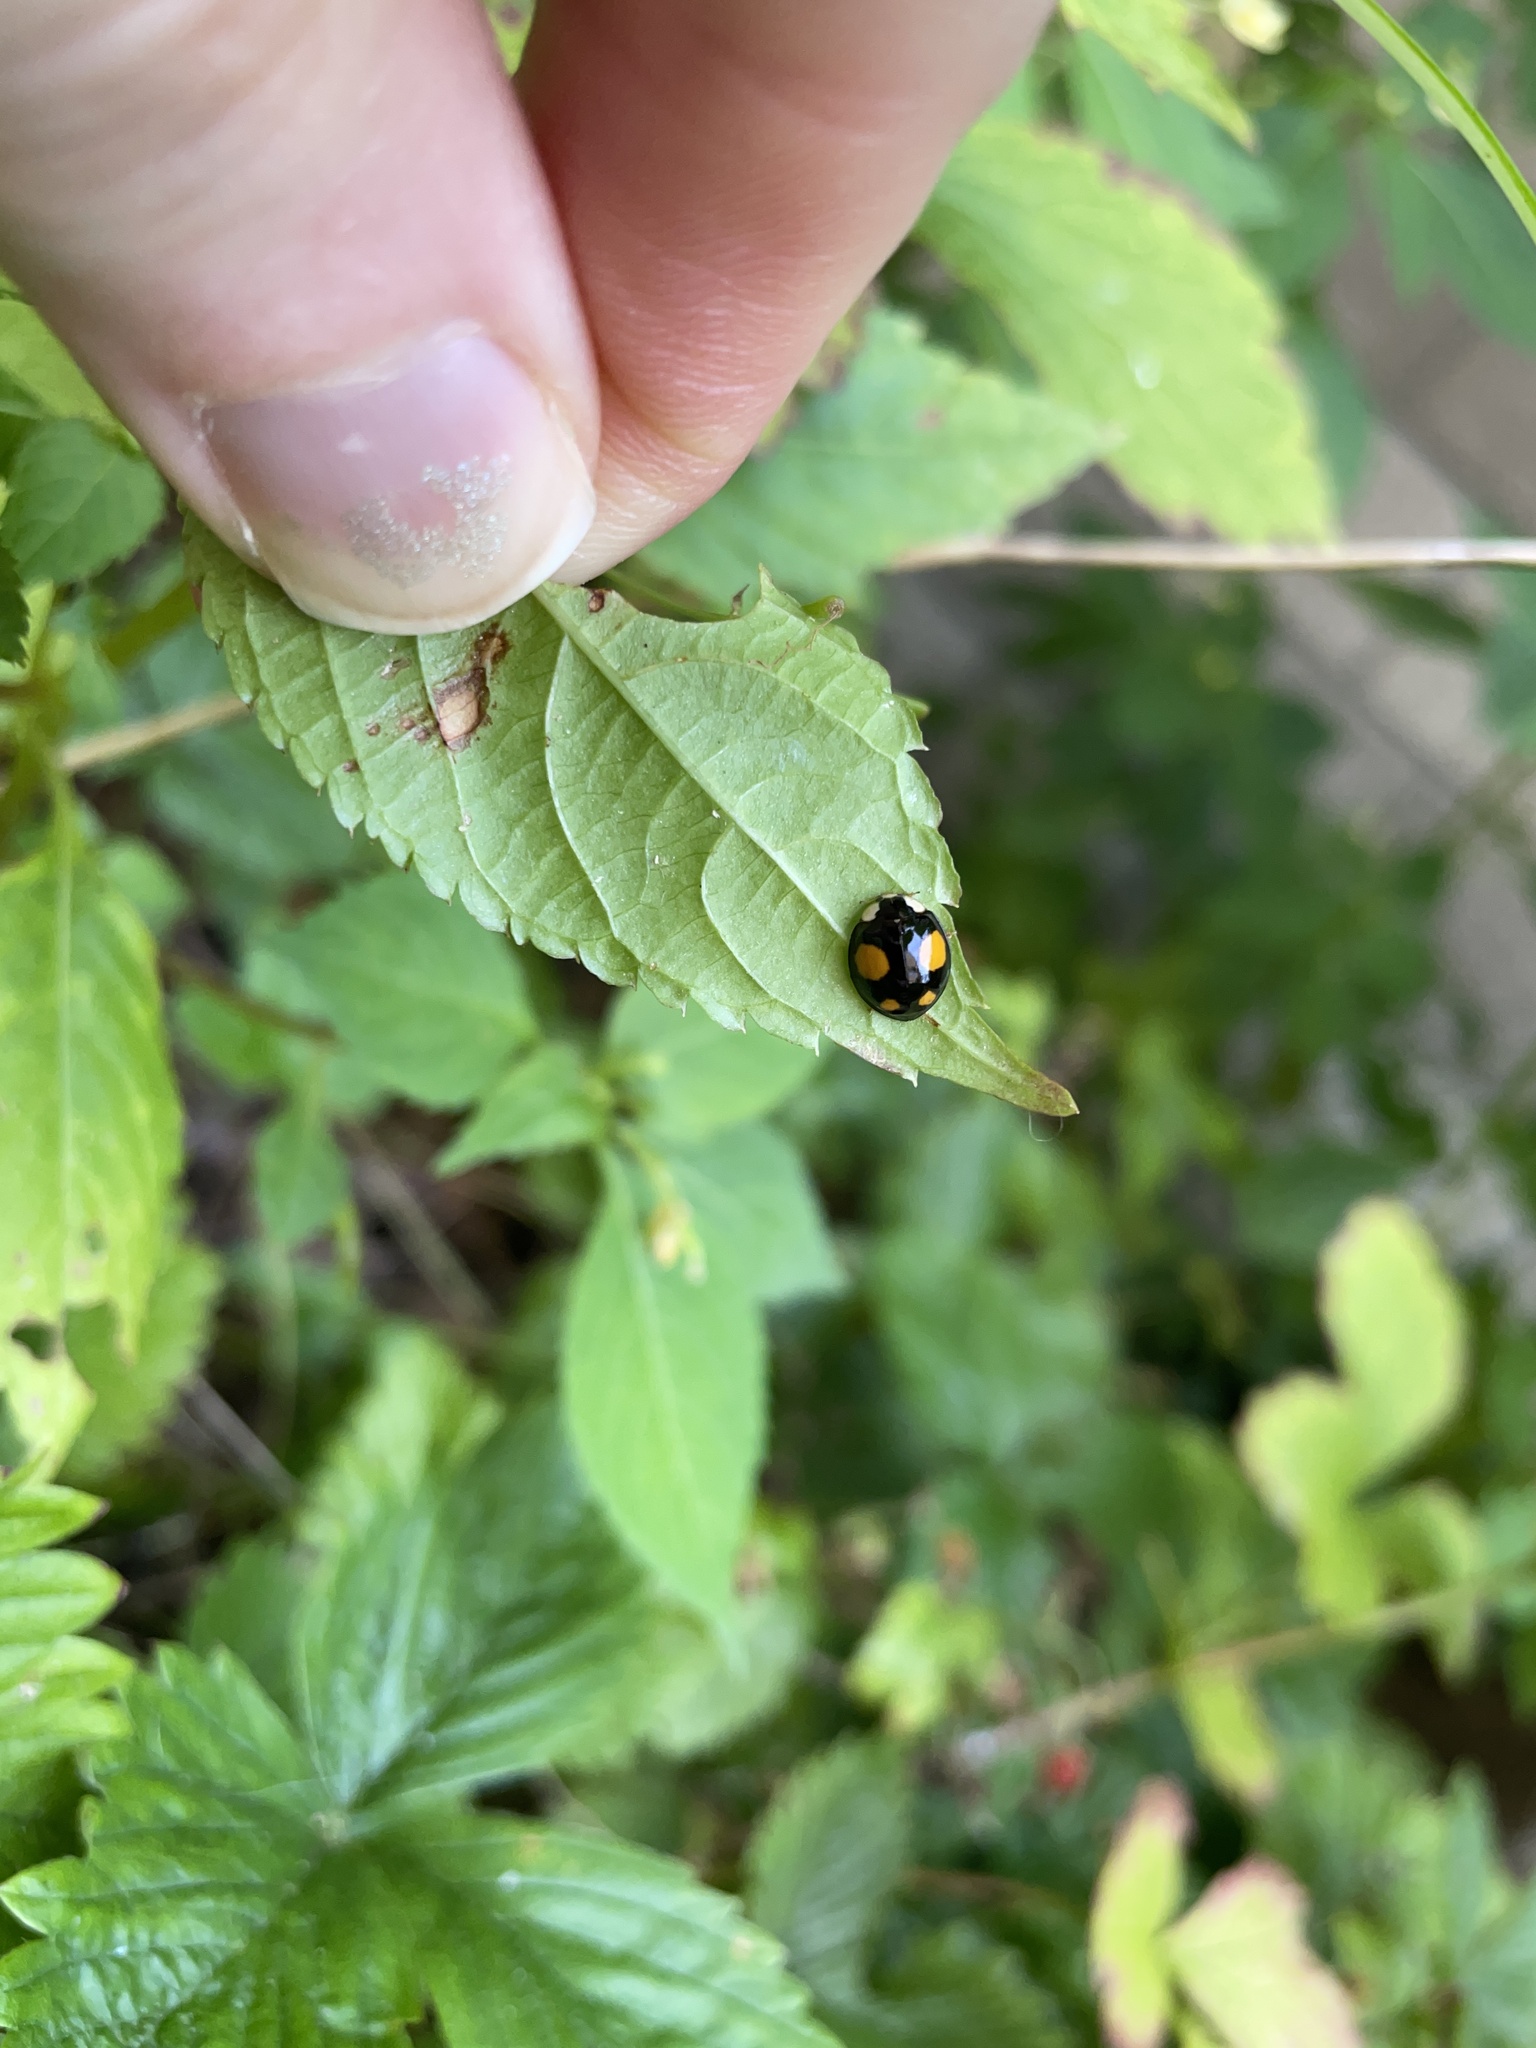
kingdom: Animalia
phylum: Arthropoda
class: Insecta
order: Coleoptera
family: Coccinellidae
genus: Harmonia
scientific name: Harmonia axyridis
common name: Harlequin ladybird
